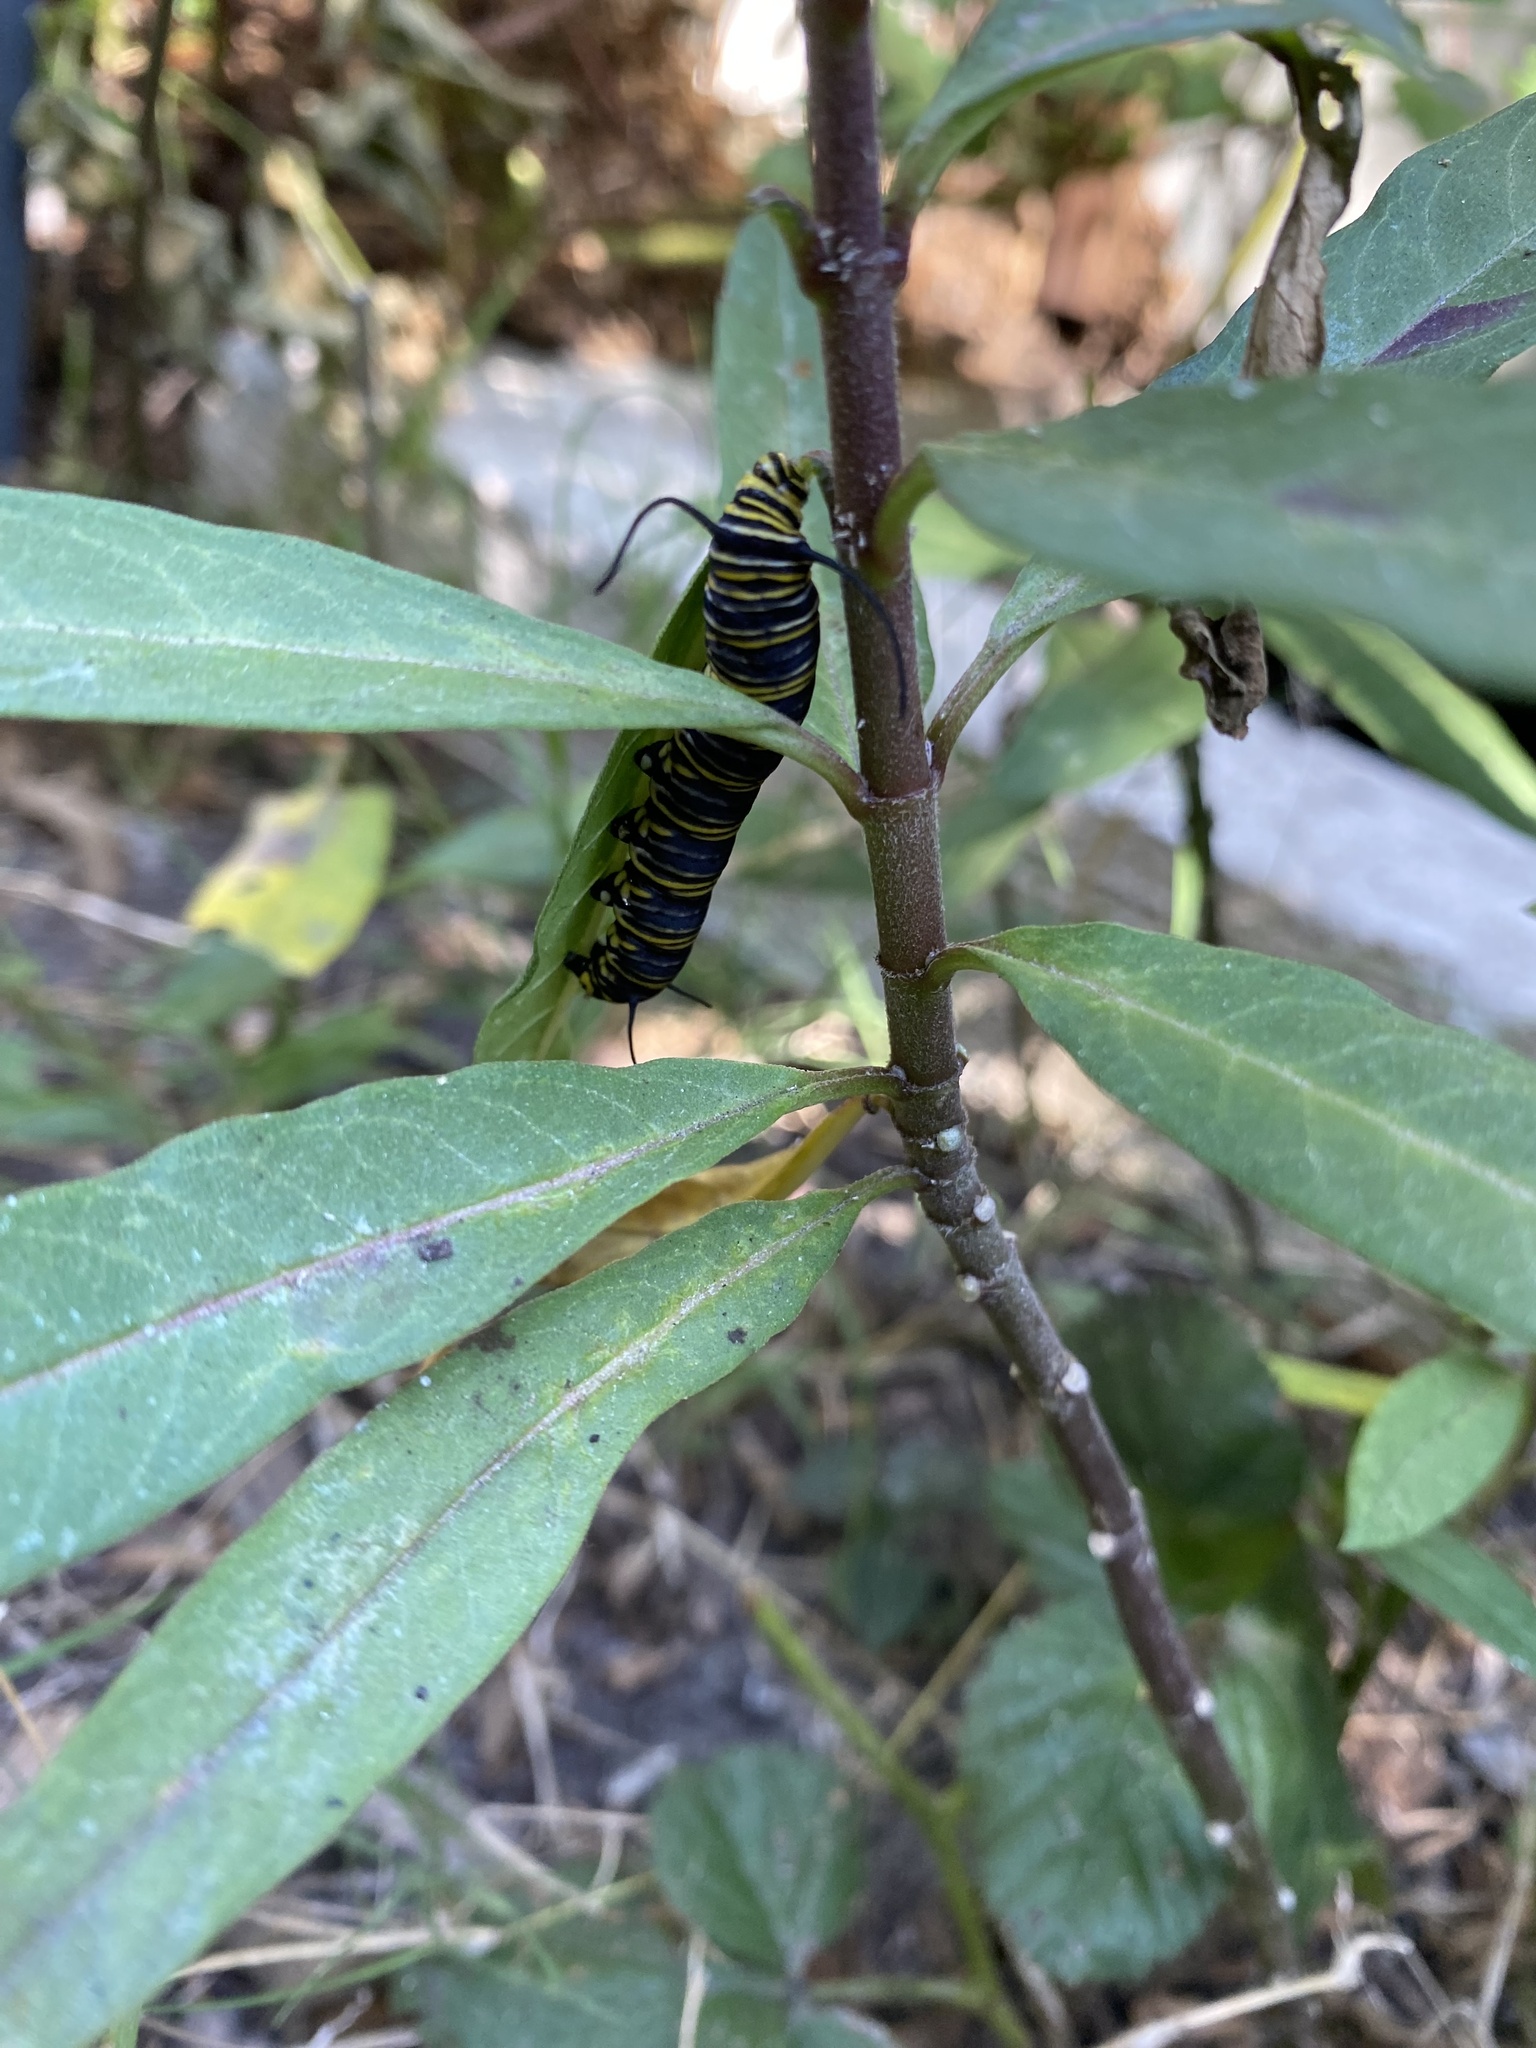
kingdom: Animalia
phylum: Arthropoda
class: Insecta
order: Lepidoptera
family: Nymphalidae
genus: Danaus
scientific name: Danaus plexippus
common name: Monarch
